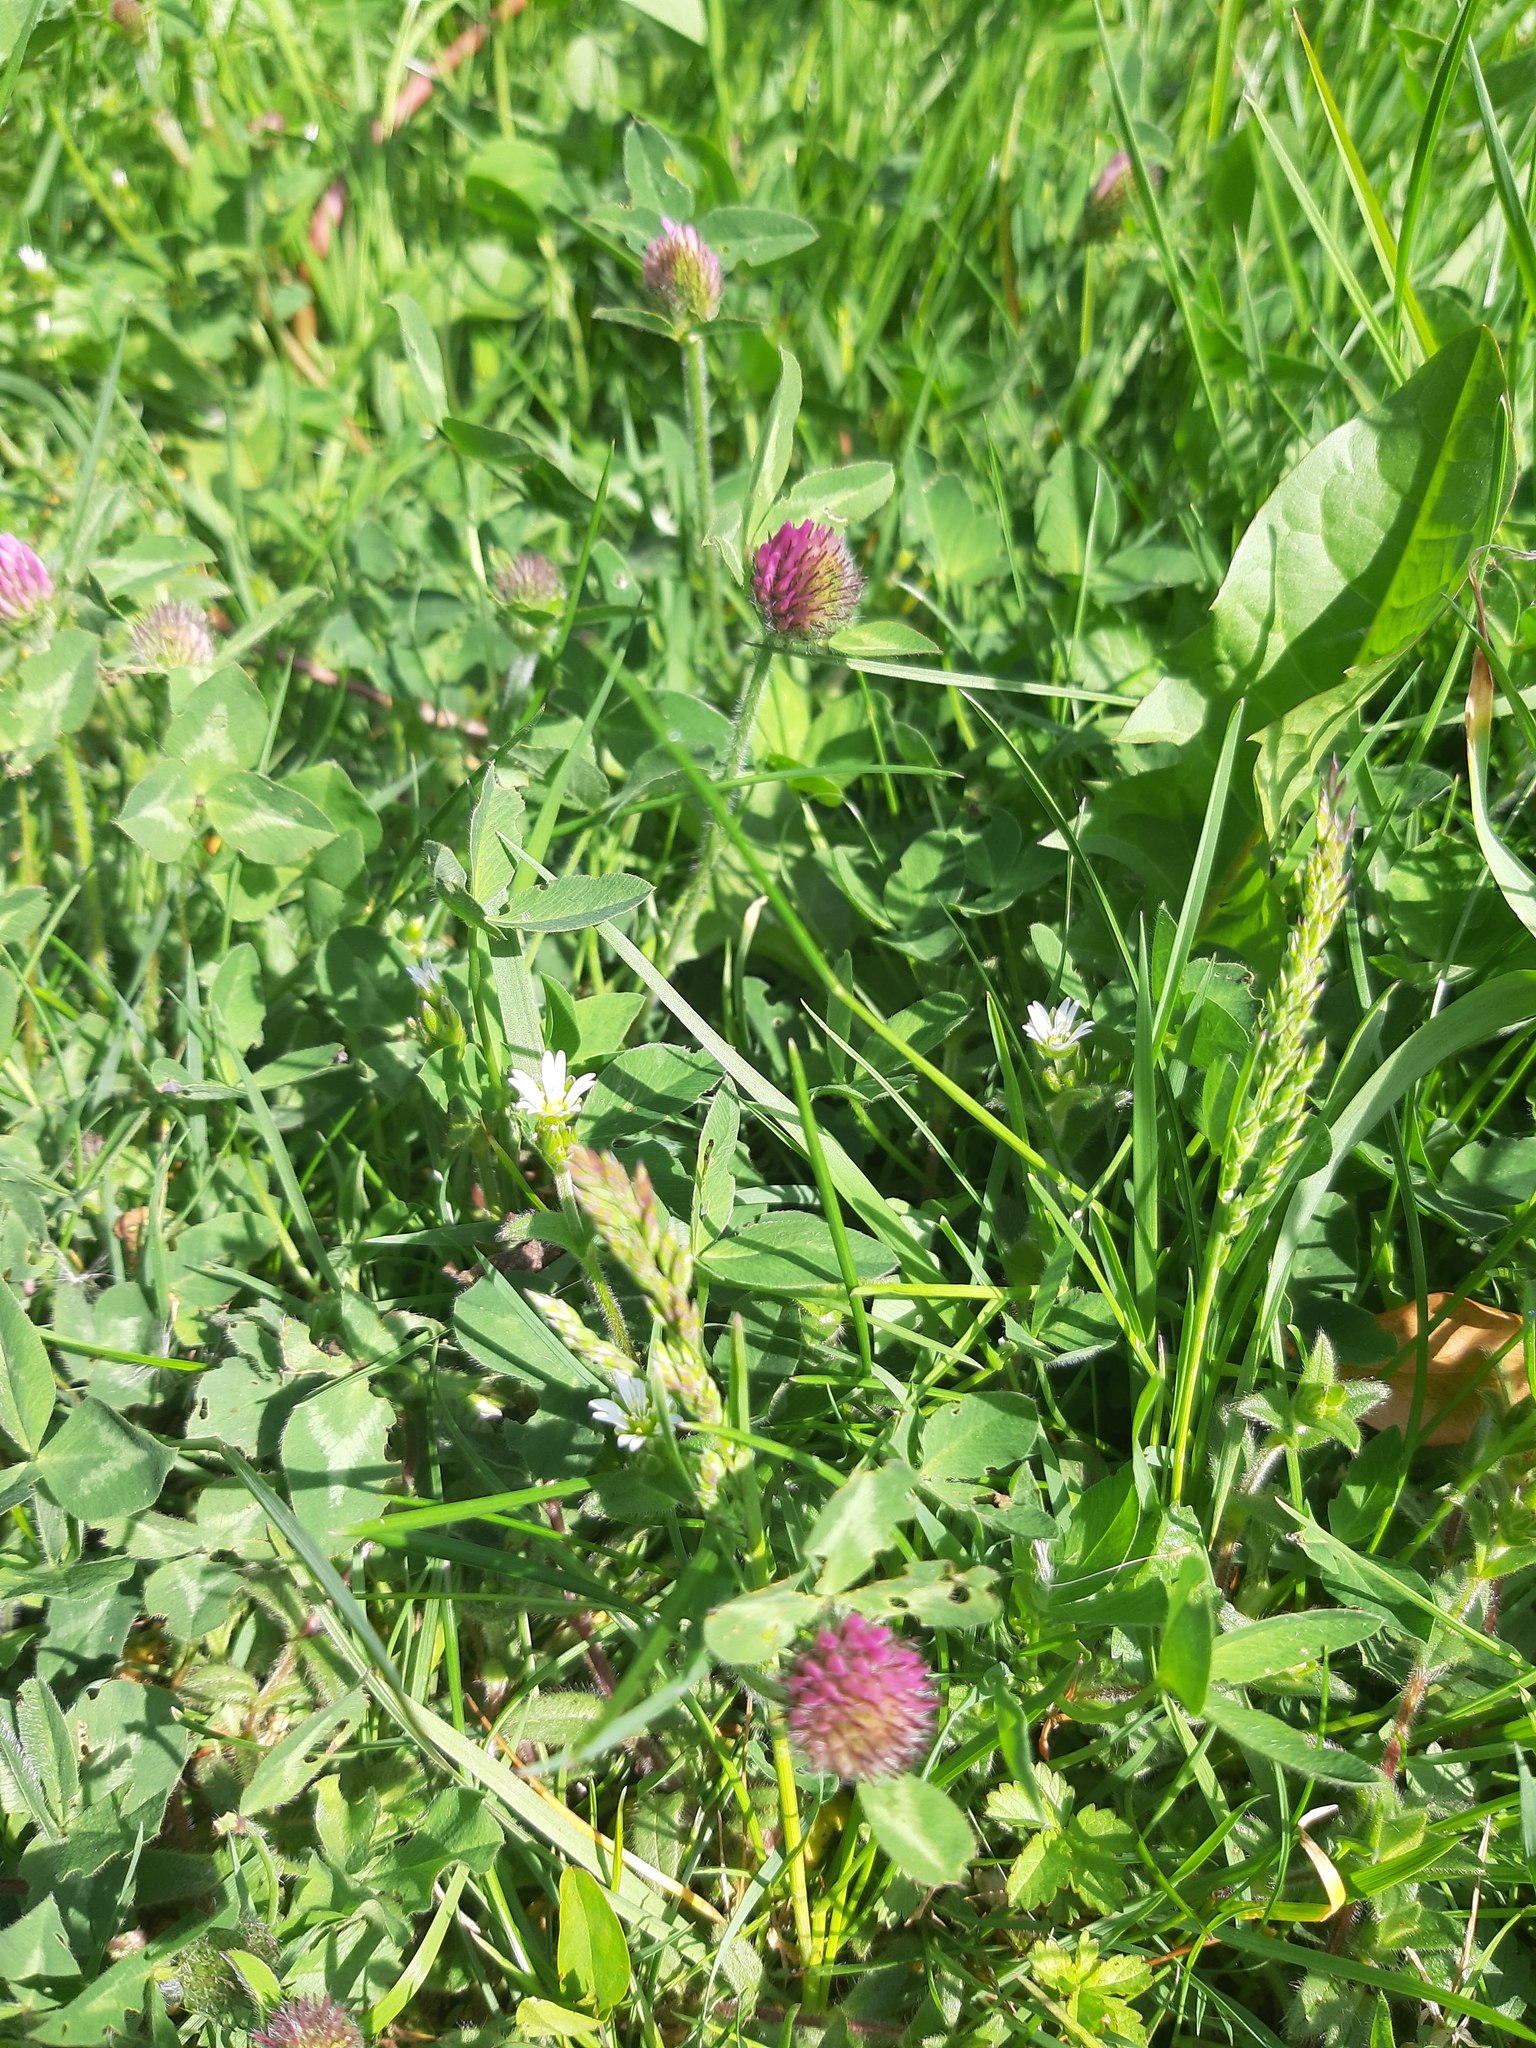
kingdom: Plantae
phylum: Tracheophyta
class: Magnoliopsida
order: Fabales
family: Fabaceae
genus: Trifolium
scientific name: Trifolium pratense
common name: Red clover
